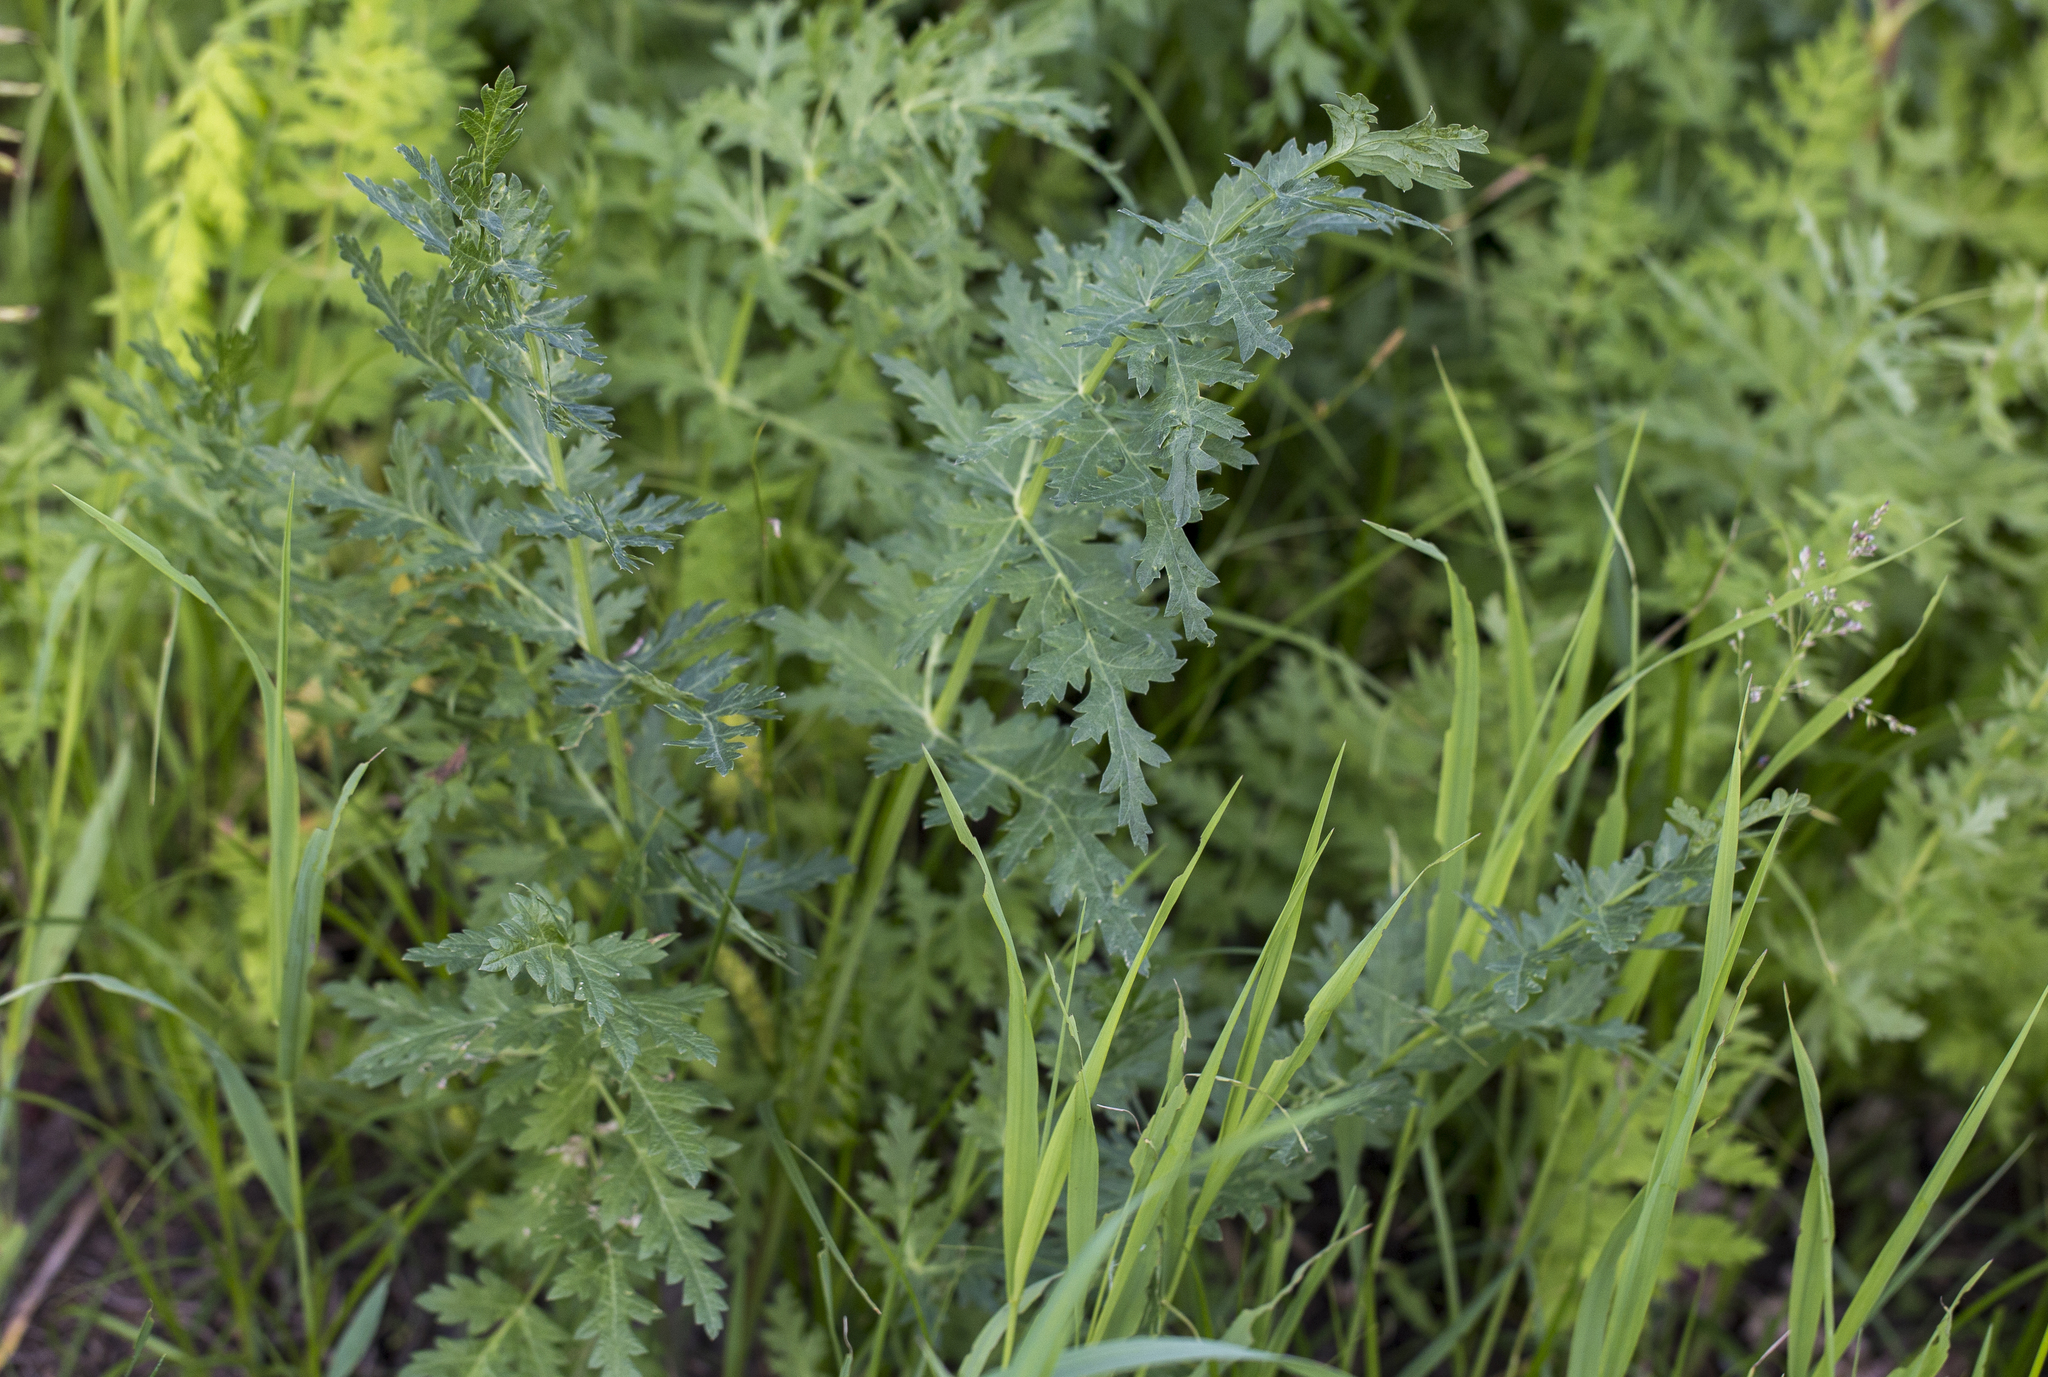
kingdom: Plantae
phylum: Tracheophyta
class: Magnoliopsida
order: Apiales
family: Apiaceae
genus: Seseli
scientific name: Seseli libanotis
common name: Mooncarrot
